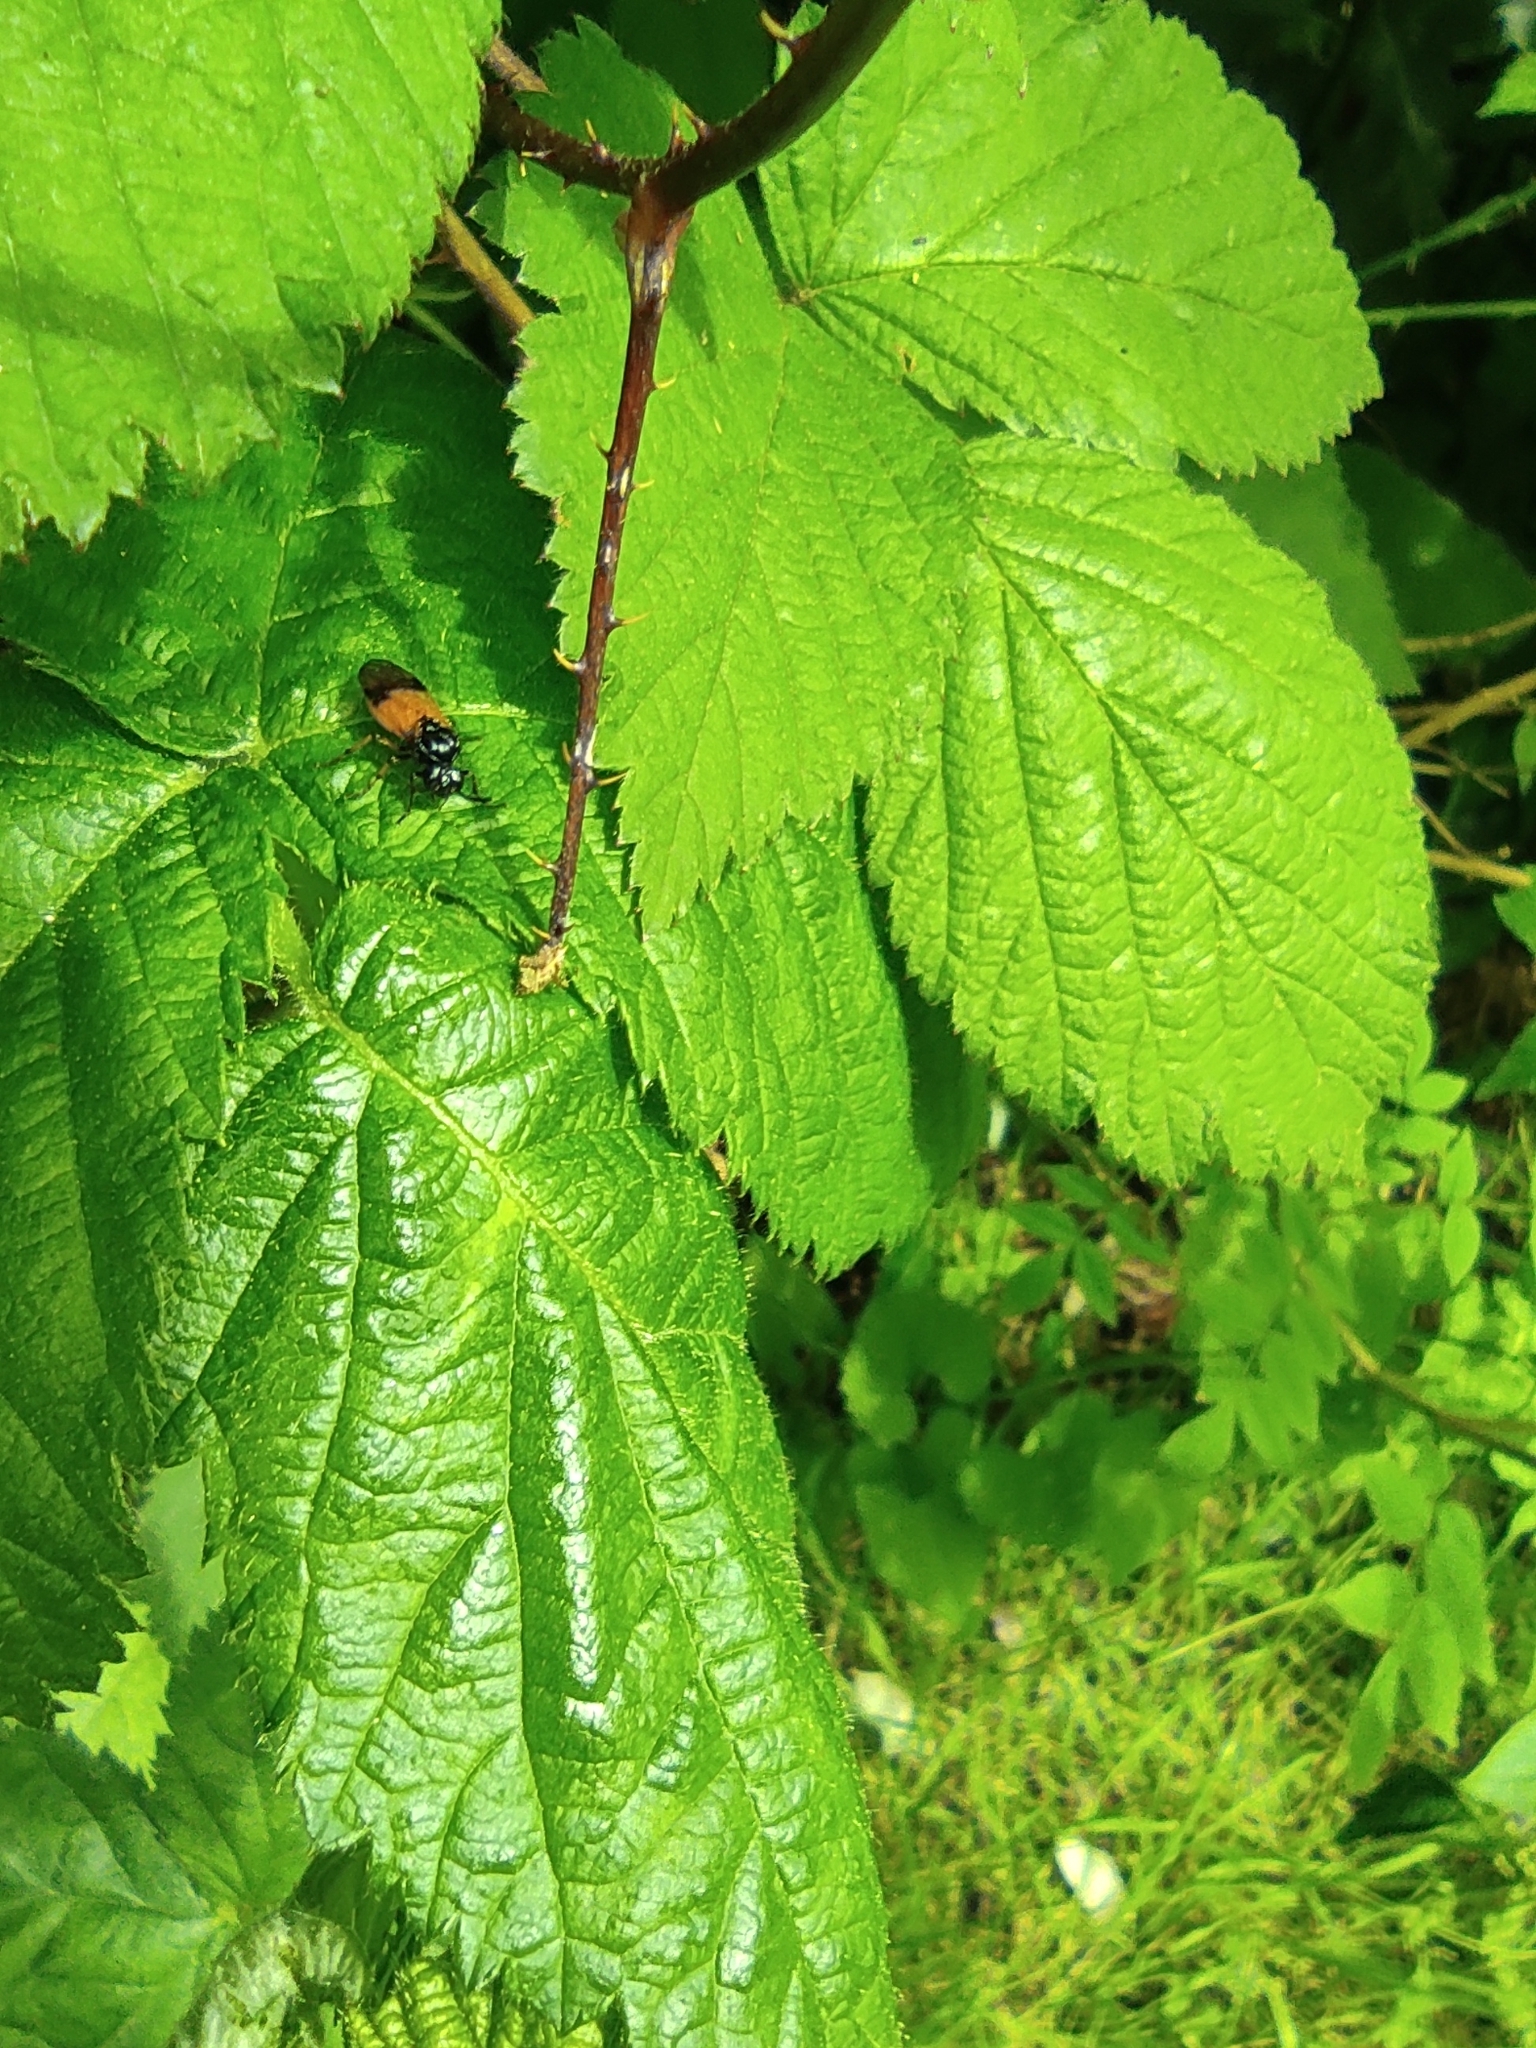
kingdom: Animalia
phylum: Arthropoda
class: Insecta
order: Hymenoptera
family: Argidae
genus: Arge
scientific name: Arge cyanocrocea
